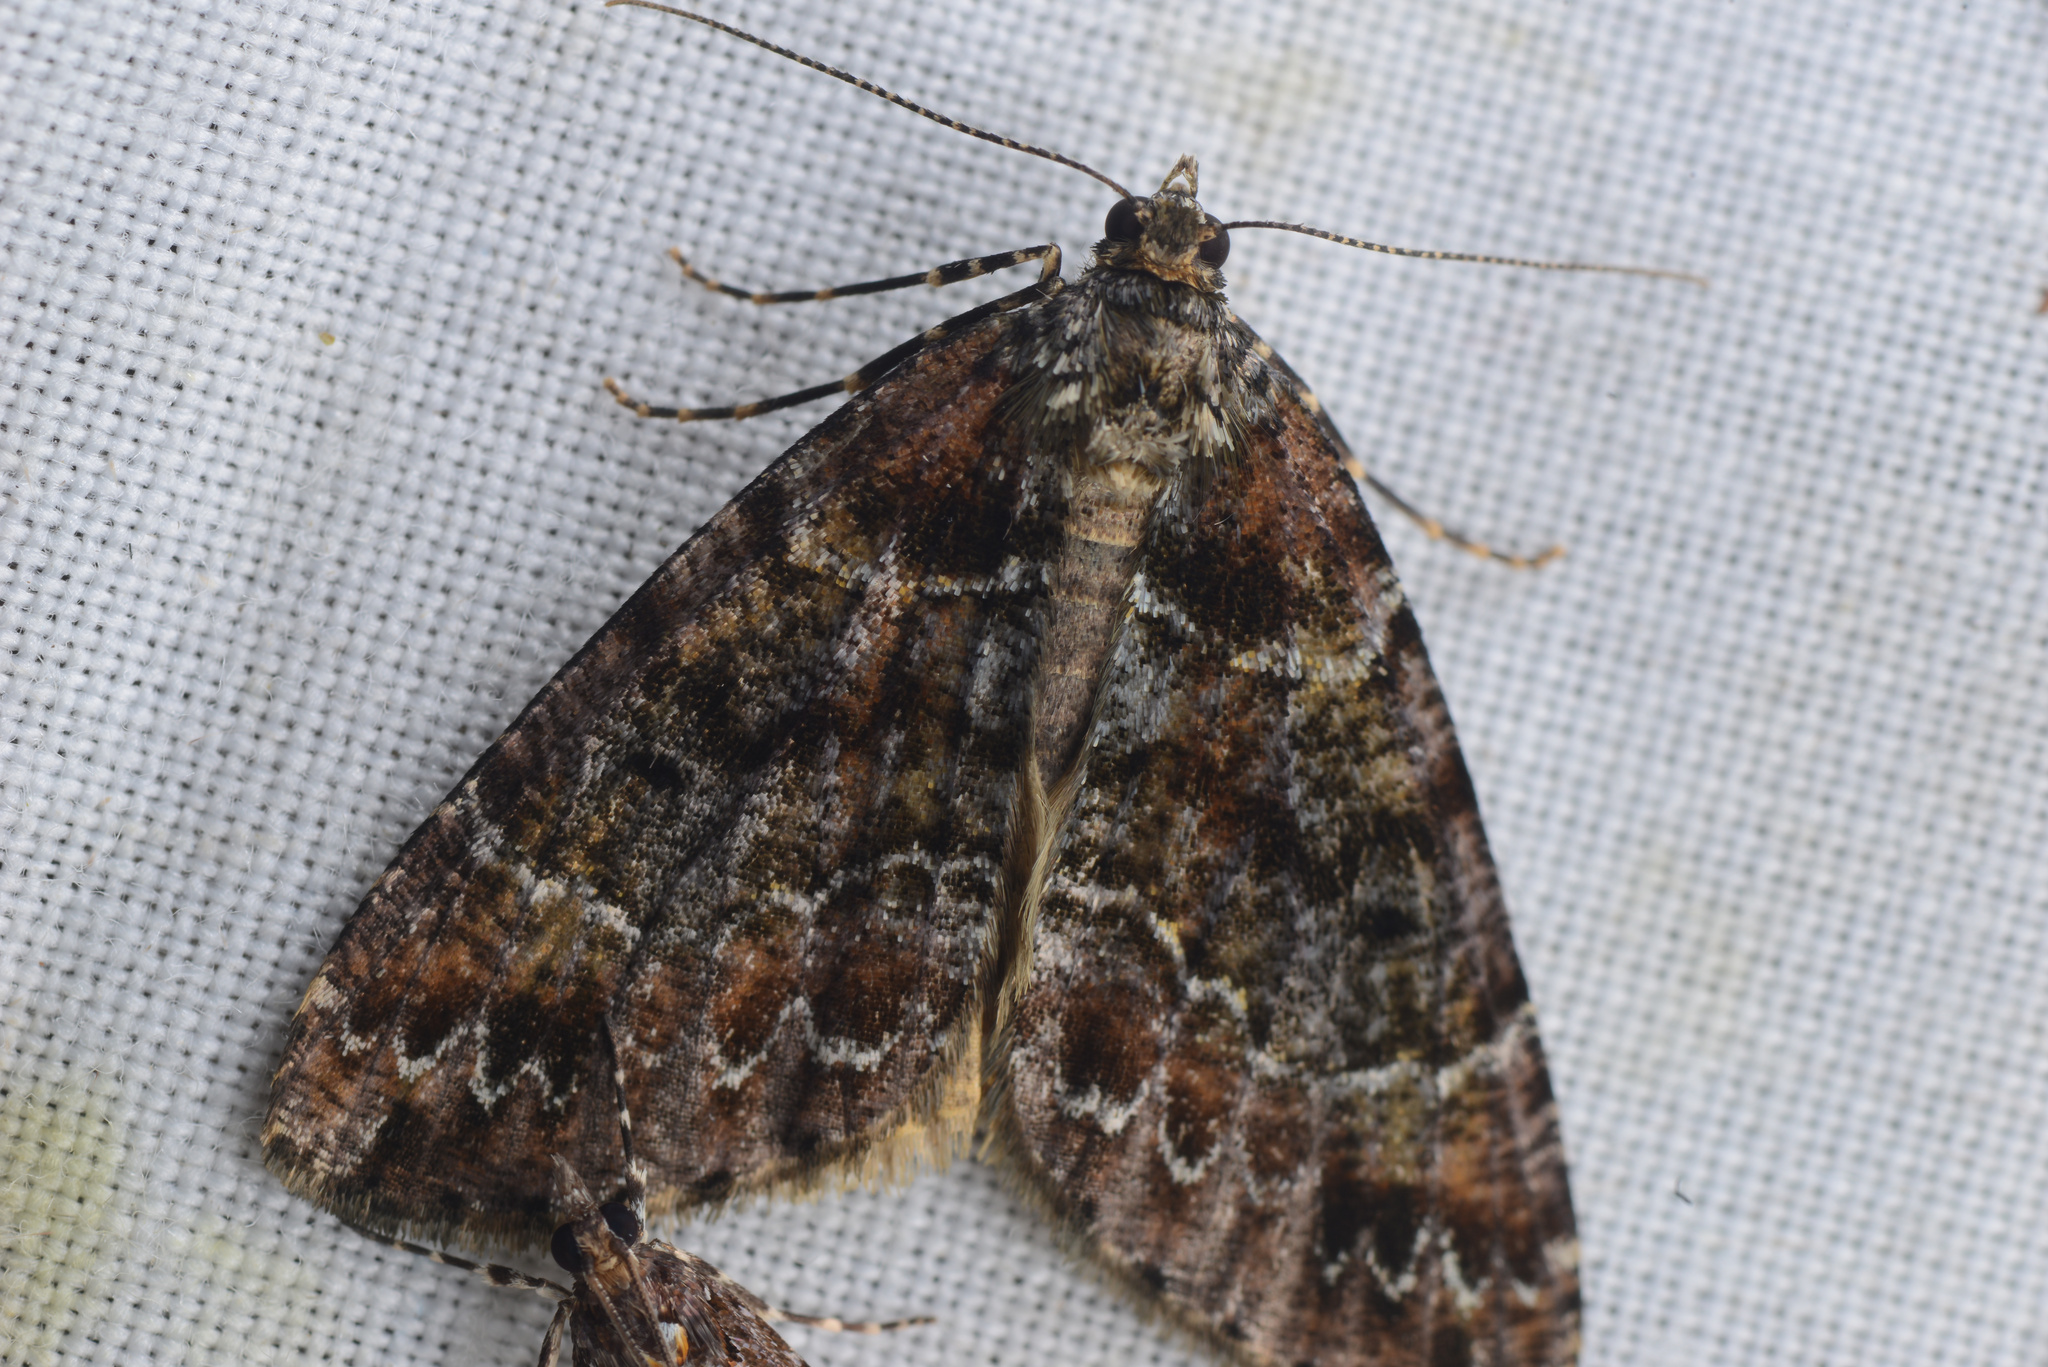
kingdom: Animalia
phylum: Arthropoda
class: Insecta
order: Lepidoptera
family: Geometridae
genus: Pseudocoremia
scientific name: Pseudocoremia productata
